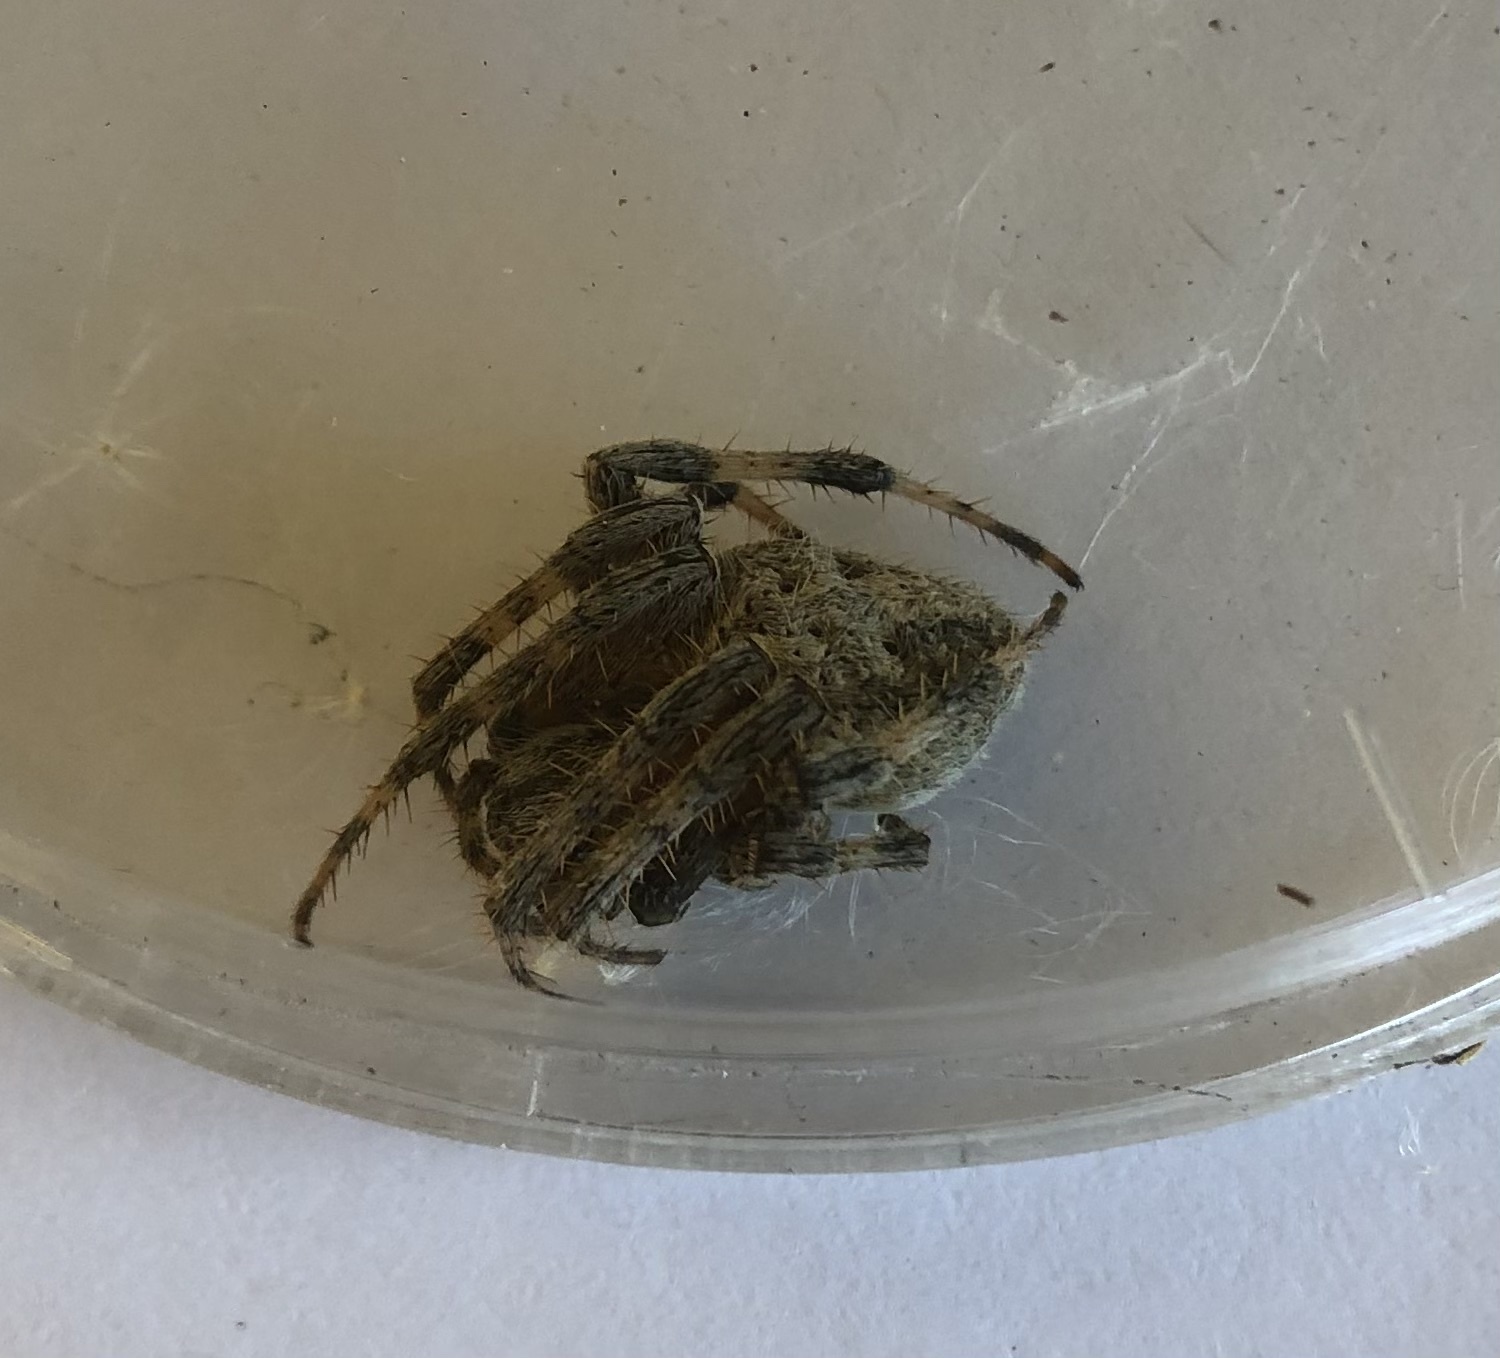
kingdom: Animalia
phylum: Arthropoda
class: Arachnida
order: Araneae
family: Araneidae
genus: Neoscona
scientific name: Neoscona crucifera
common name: Spotted orbweaver
